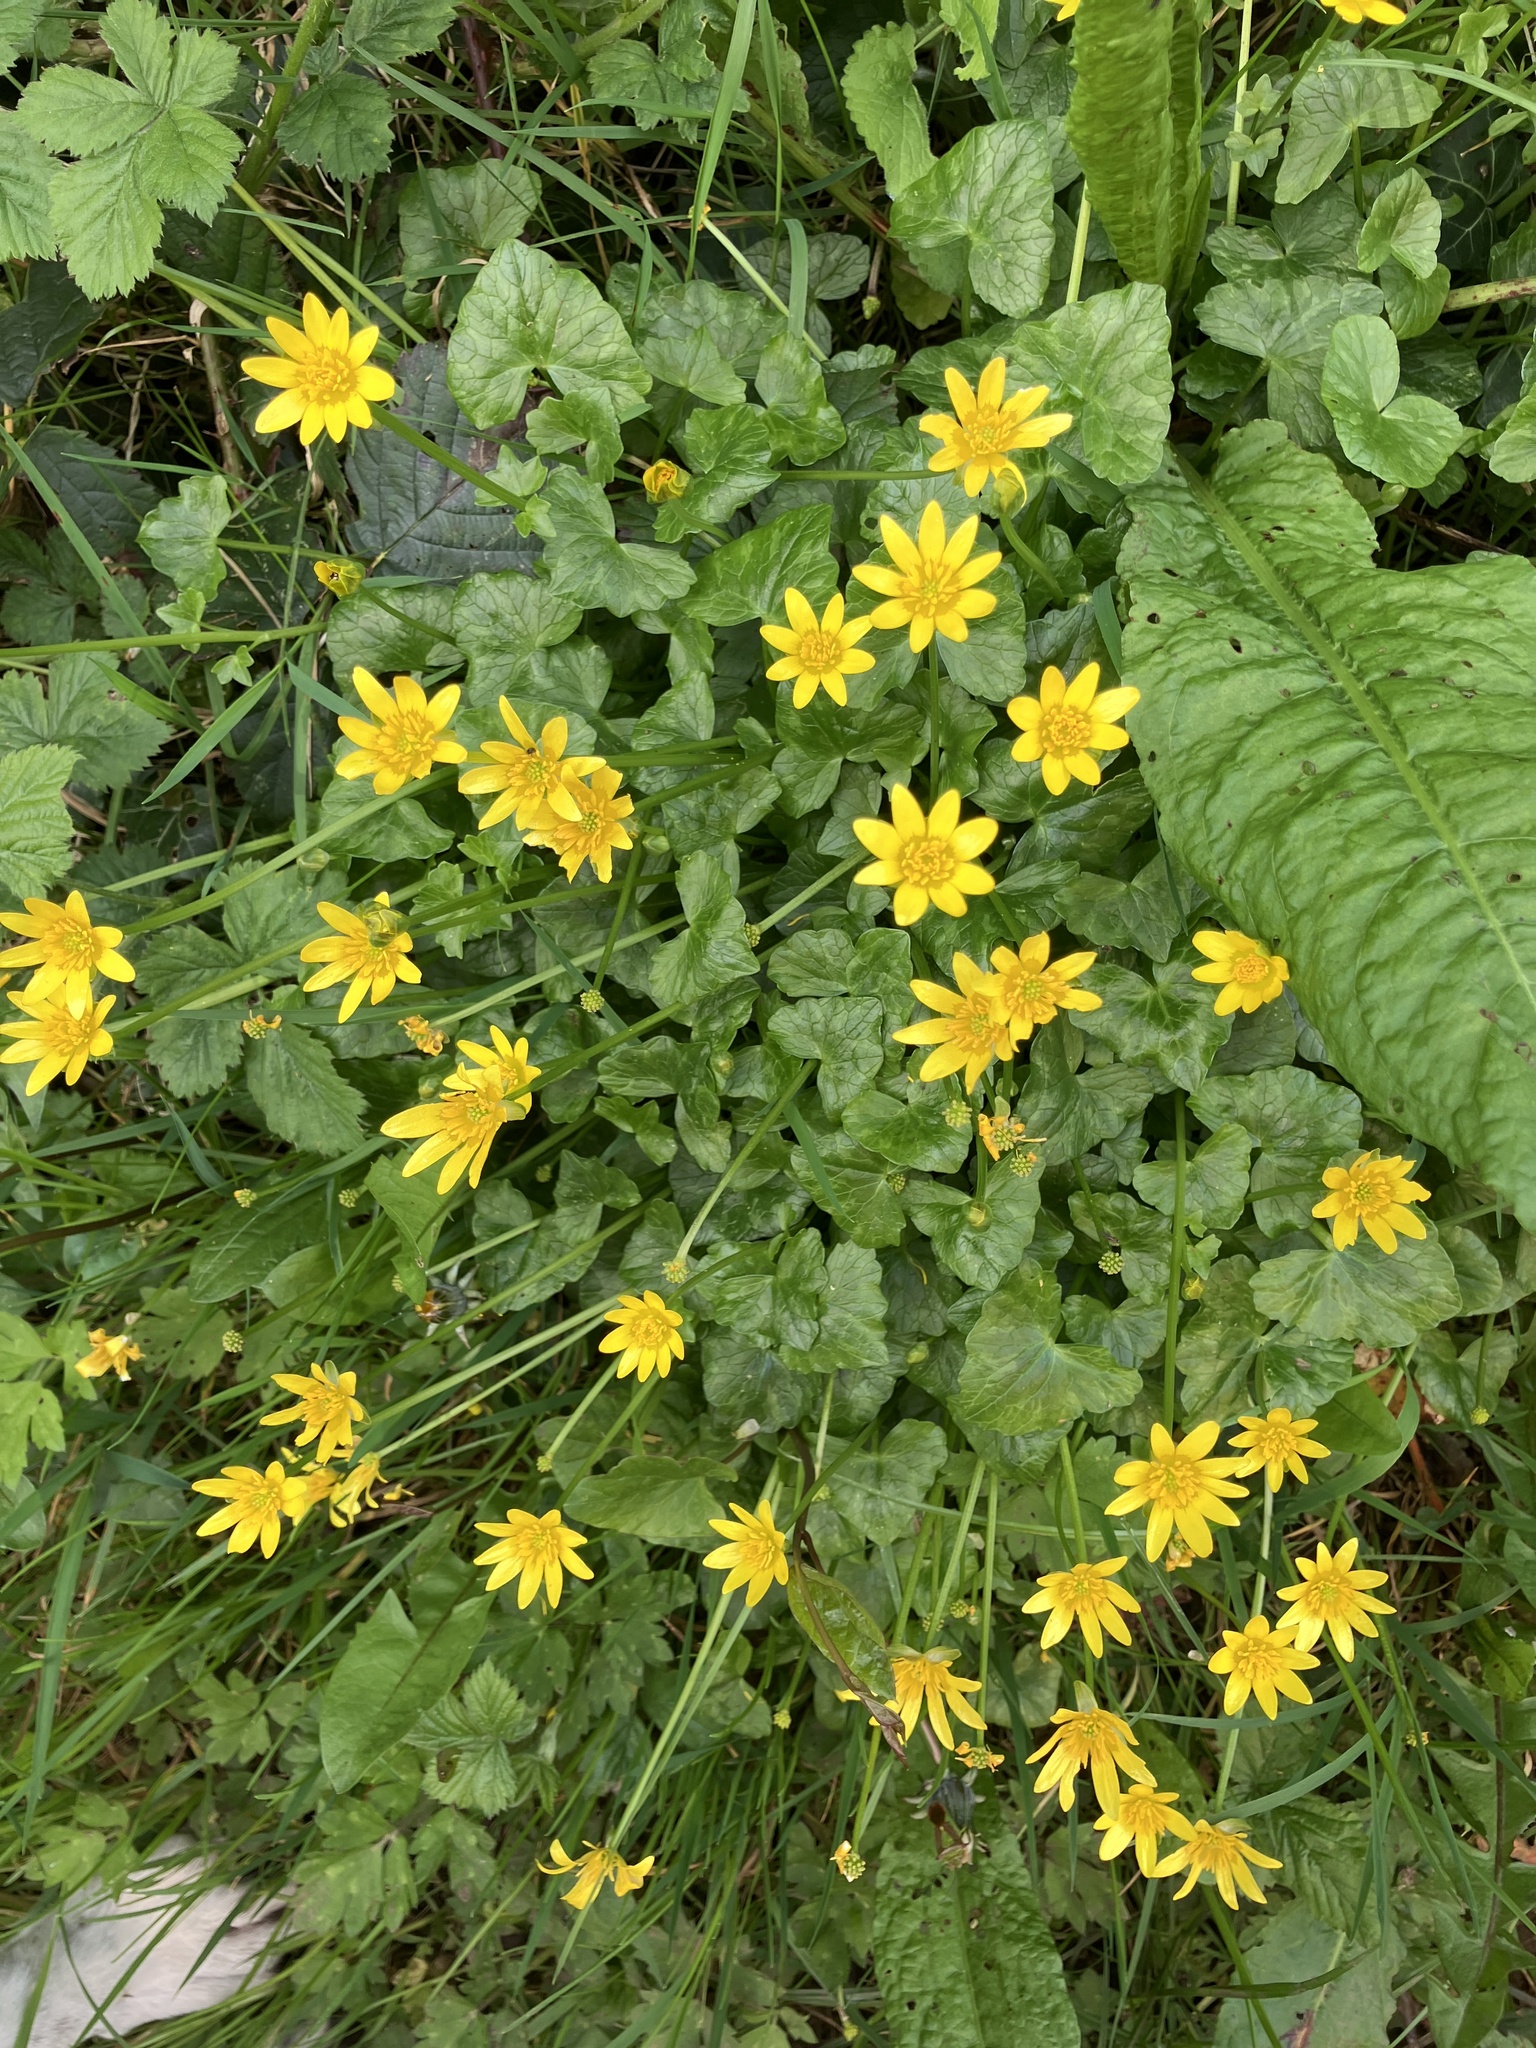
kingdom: Plantae
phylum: Tracheophyta
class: Magnoliopsida
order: Ranunculales
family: Ranunculaceae
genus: Ficaria
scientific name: Ficaria verna
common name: Lesser celandine
